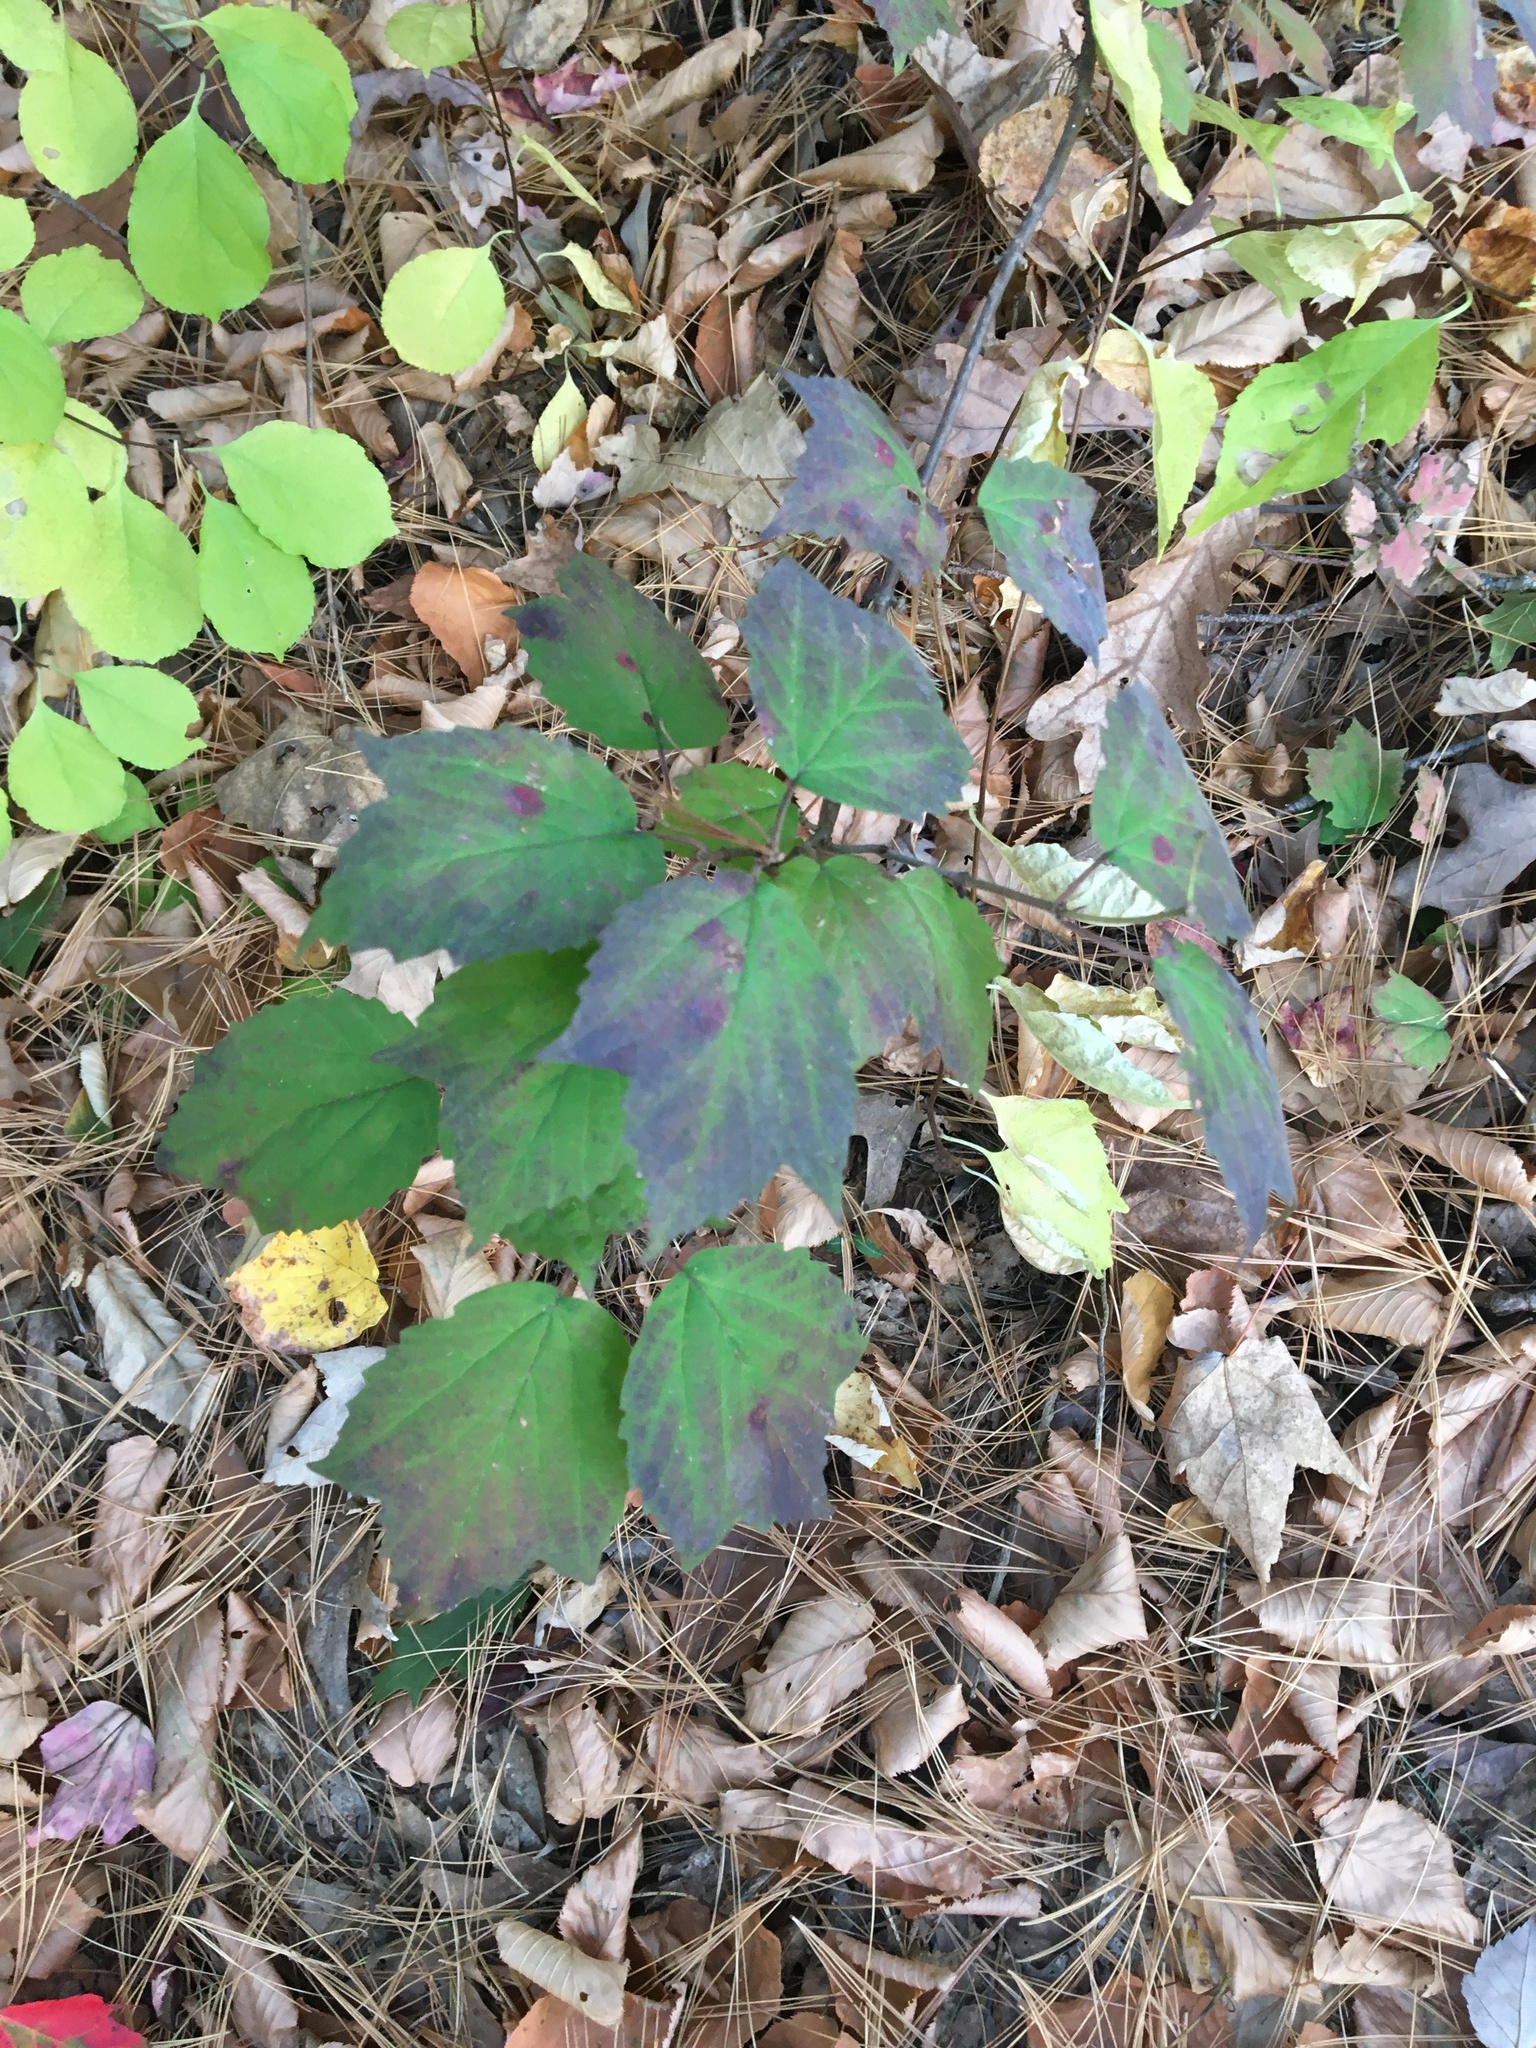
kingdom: Plantae
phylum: Tracheophyta
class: Magnoliopsida
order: Dipsacales
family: Viburnaceae
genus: Viburnum
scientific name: Viburnum acerifolium
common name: Dockmackie
